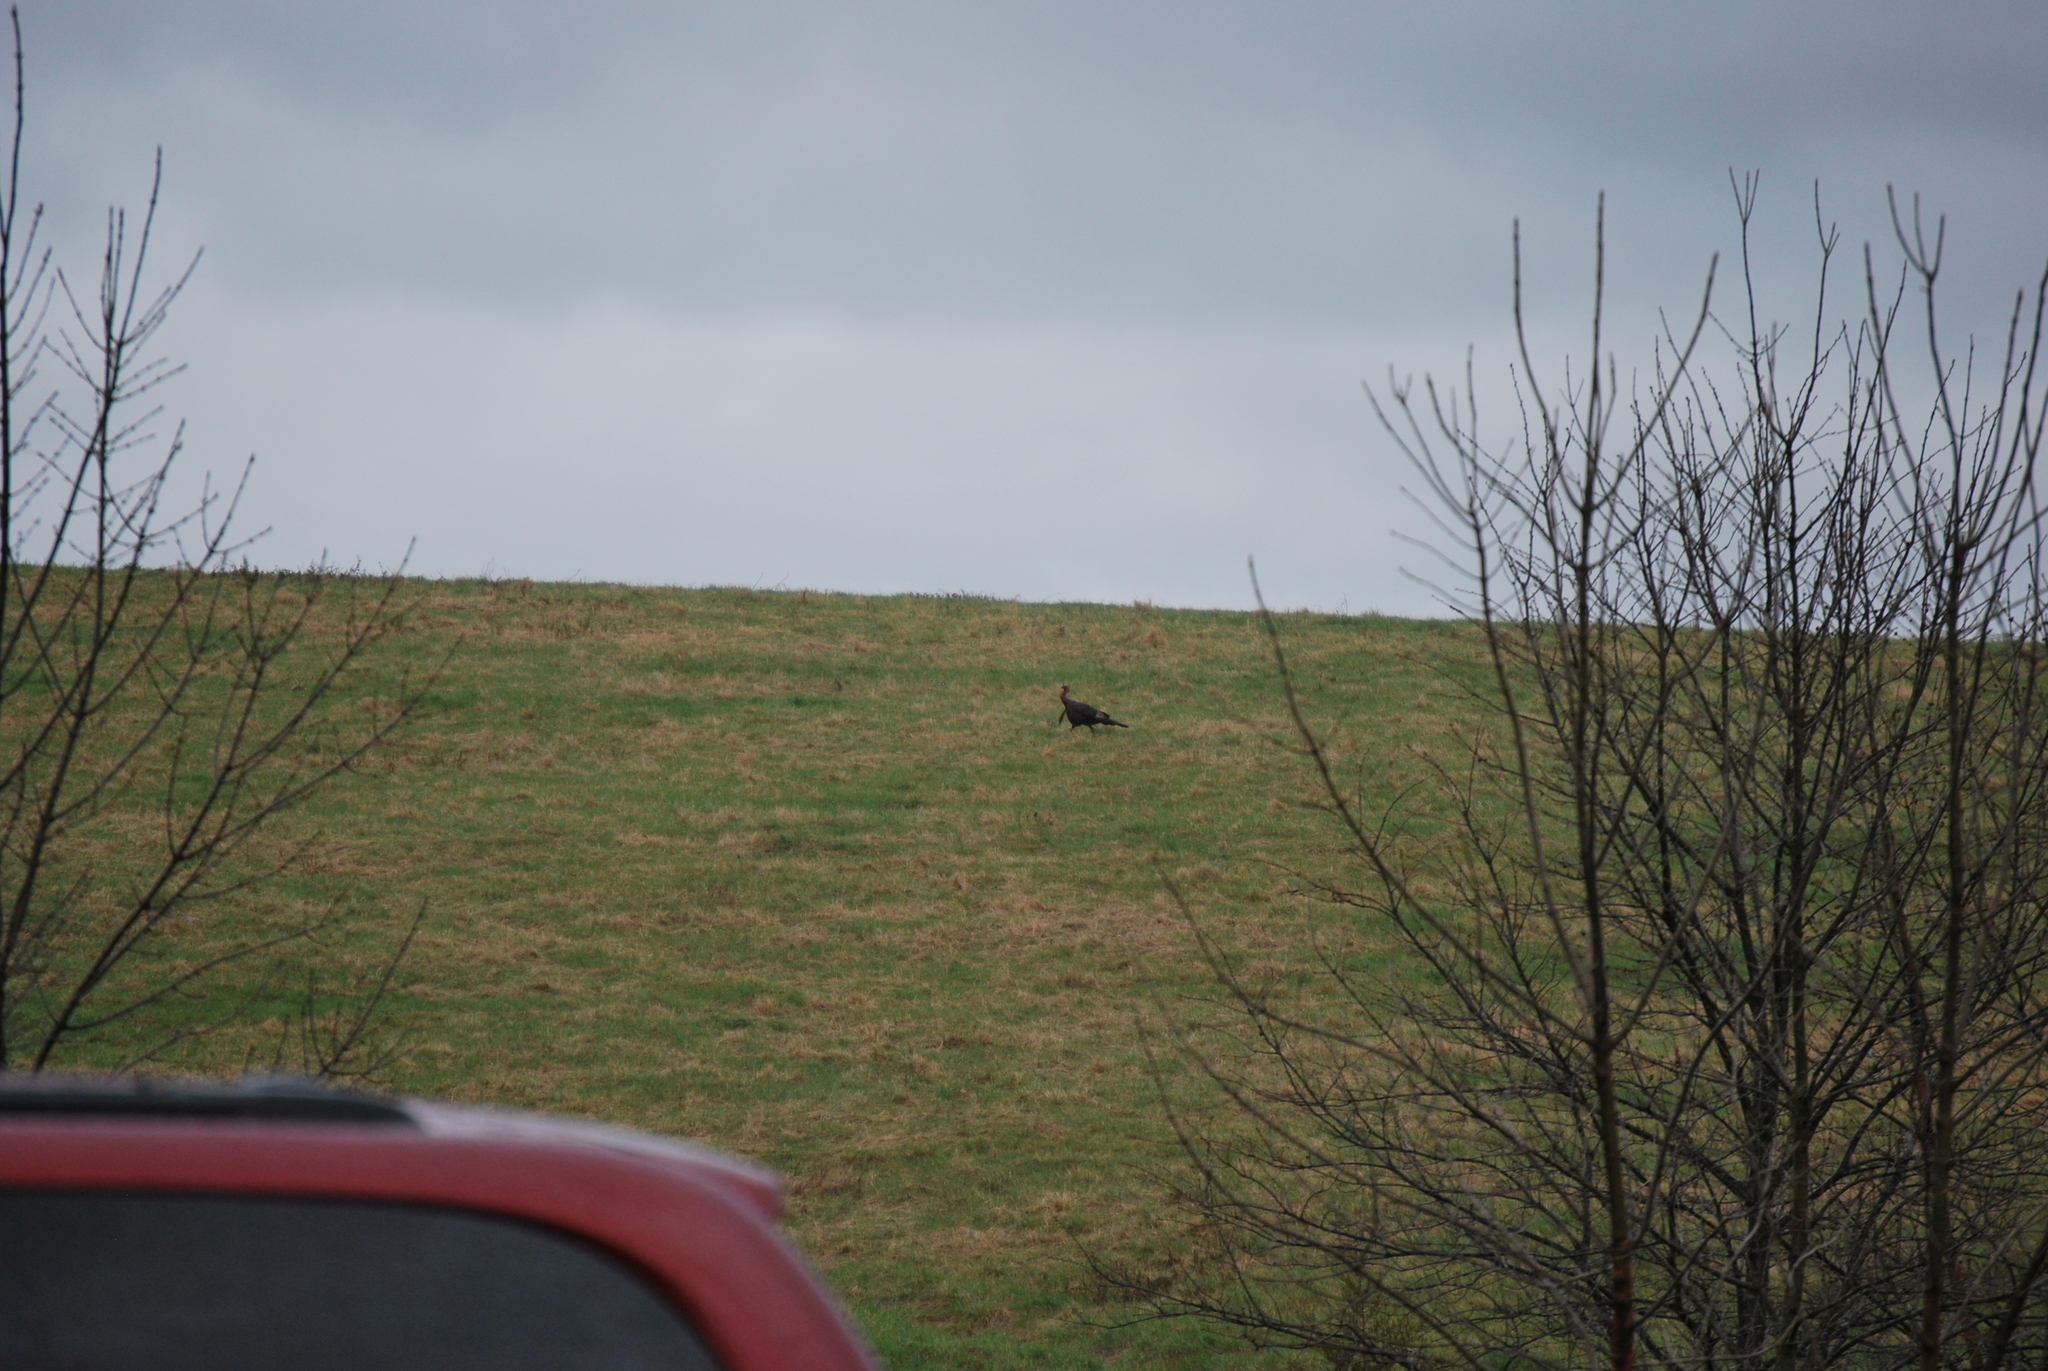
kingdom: Animalia
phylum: Chordata
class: Aves
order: Galliformes
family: Phasianidae
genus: Meleagris
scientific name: Meleagris gallopavo
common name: Wild turkey
